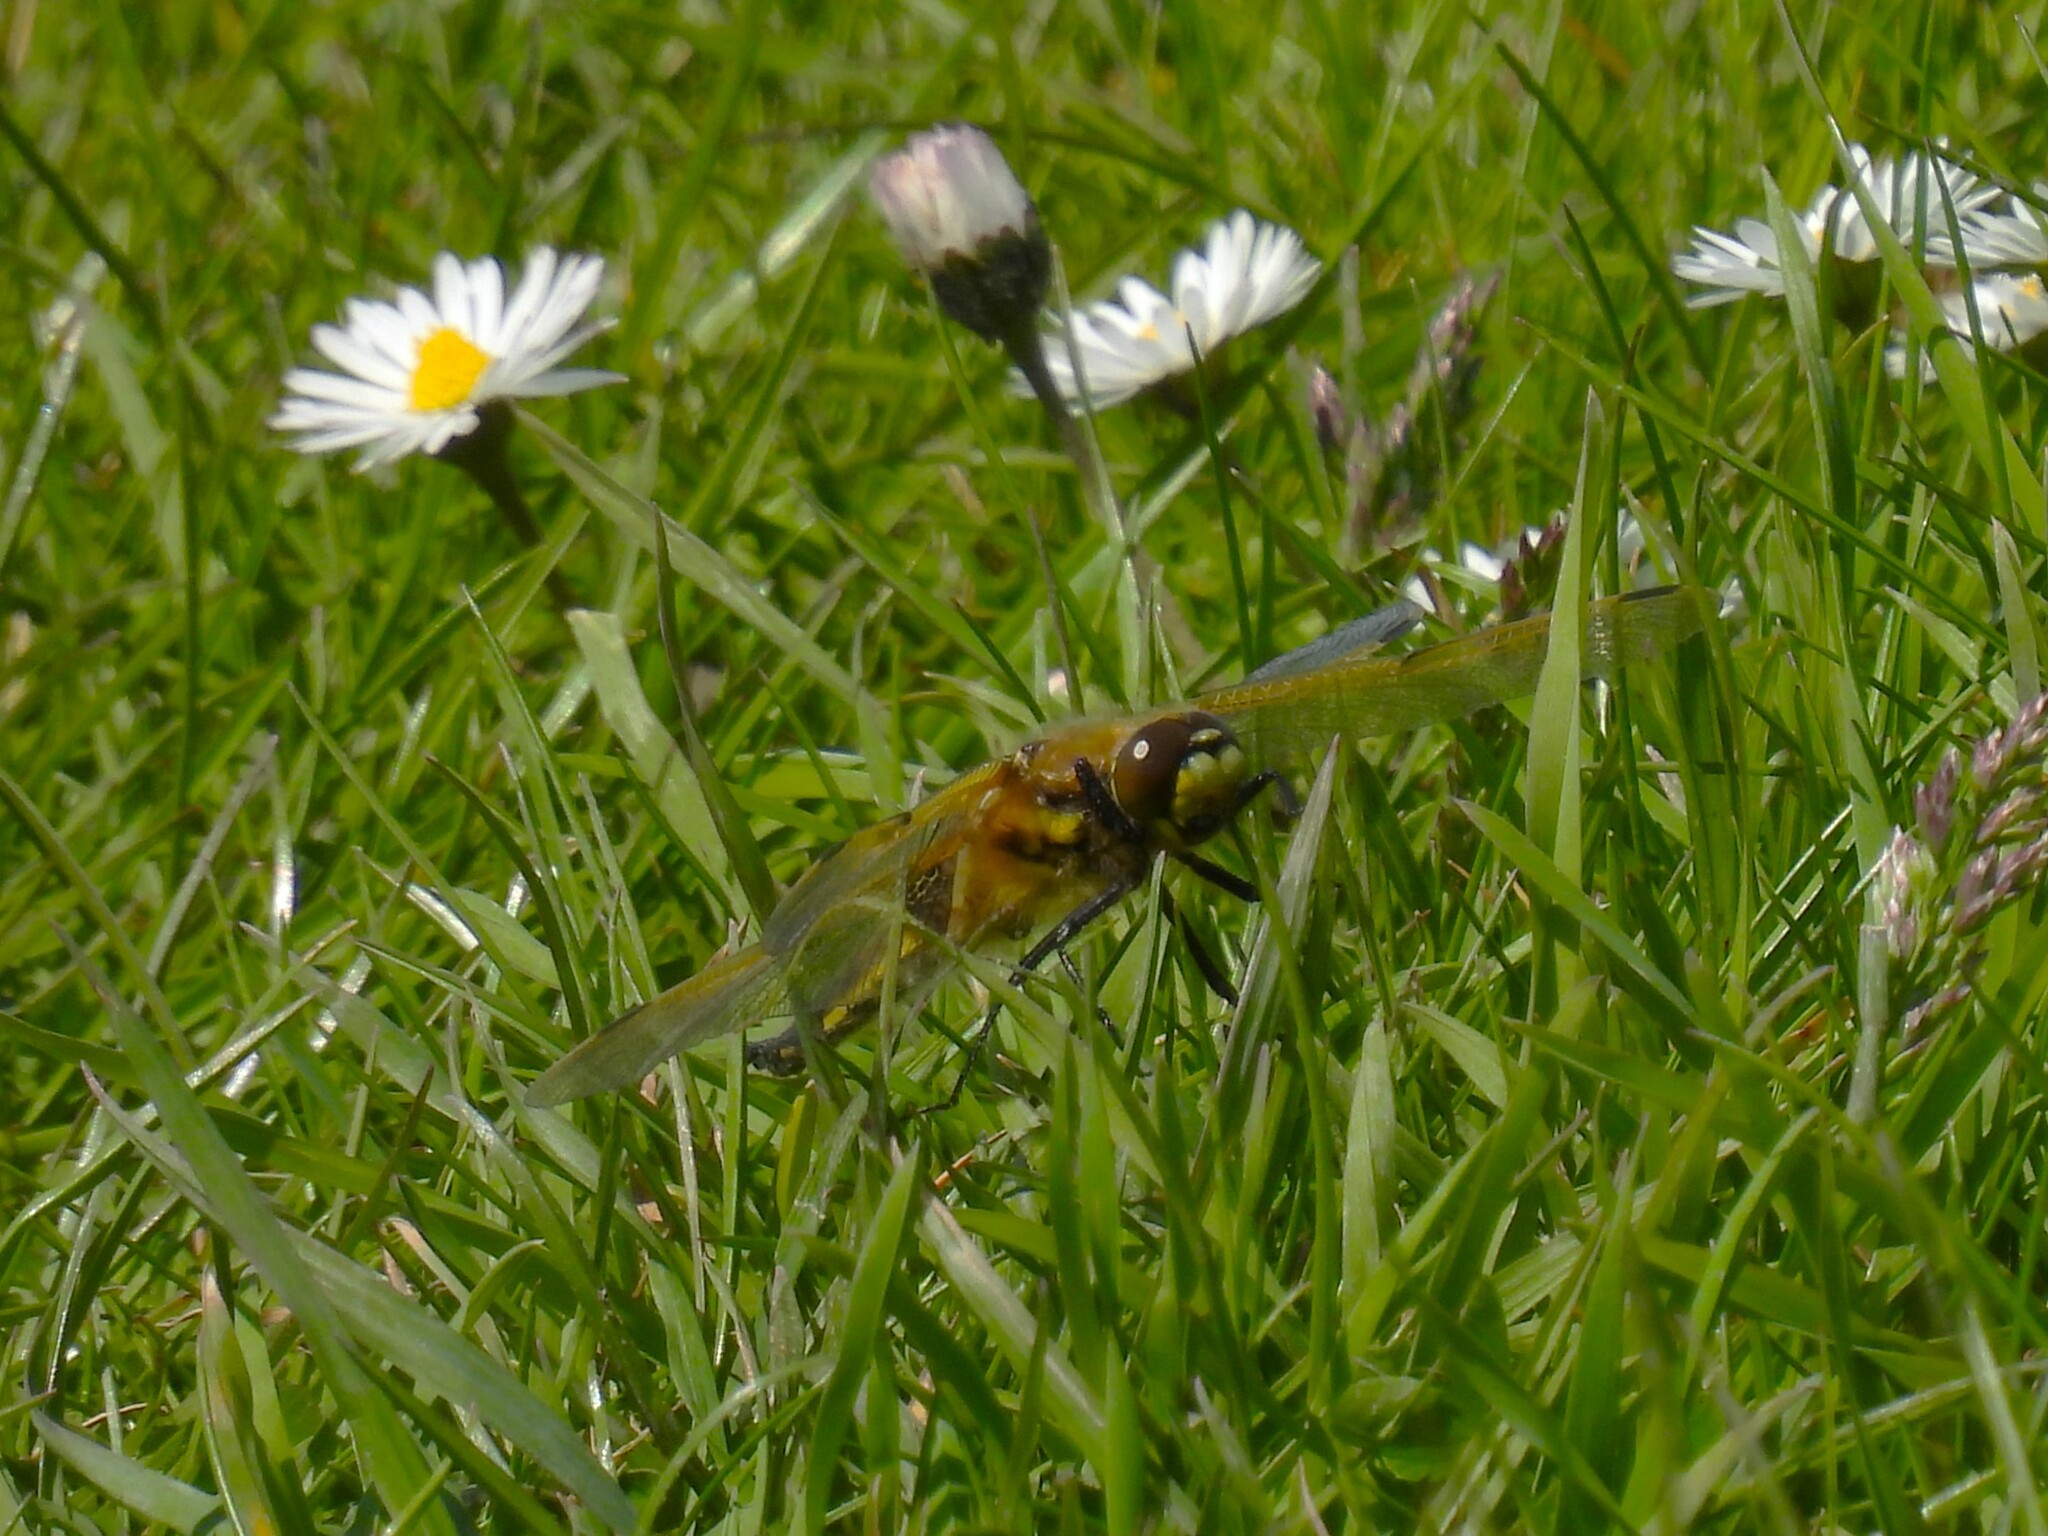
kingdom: Animalia
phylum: Arthropoda
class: Insecta
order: Odonata
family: Libellulidae
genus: Libellula
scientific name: Libellula quadrimaculata
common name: Four-spotted chaser
